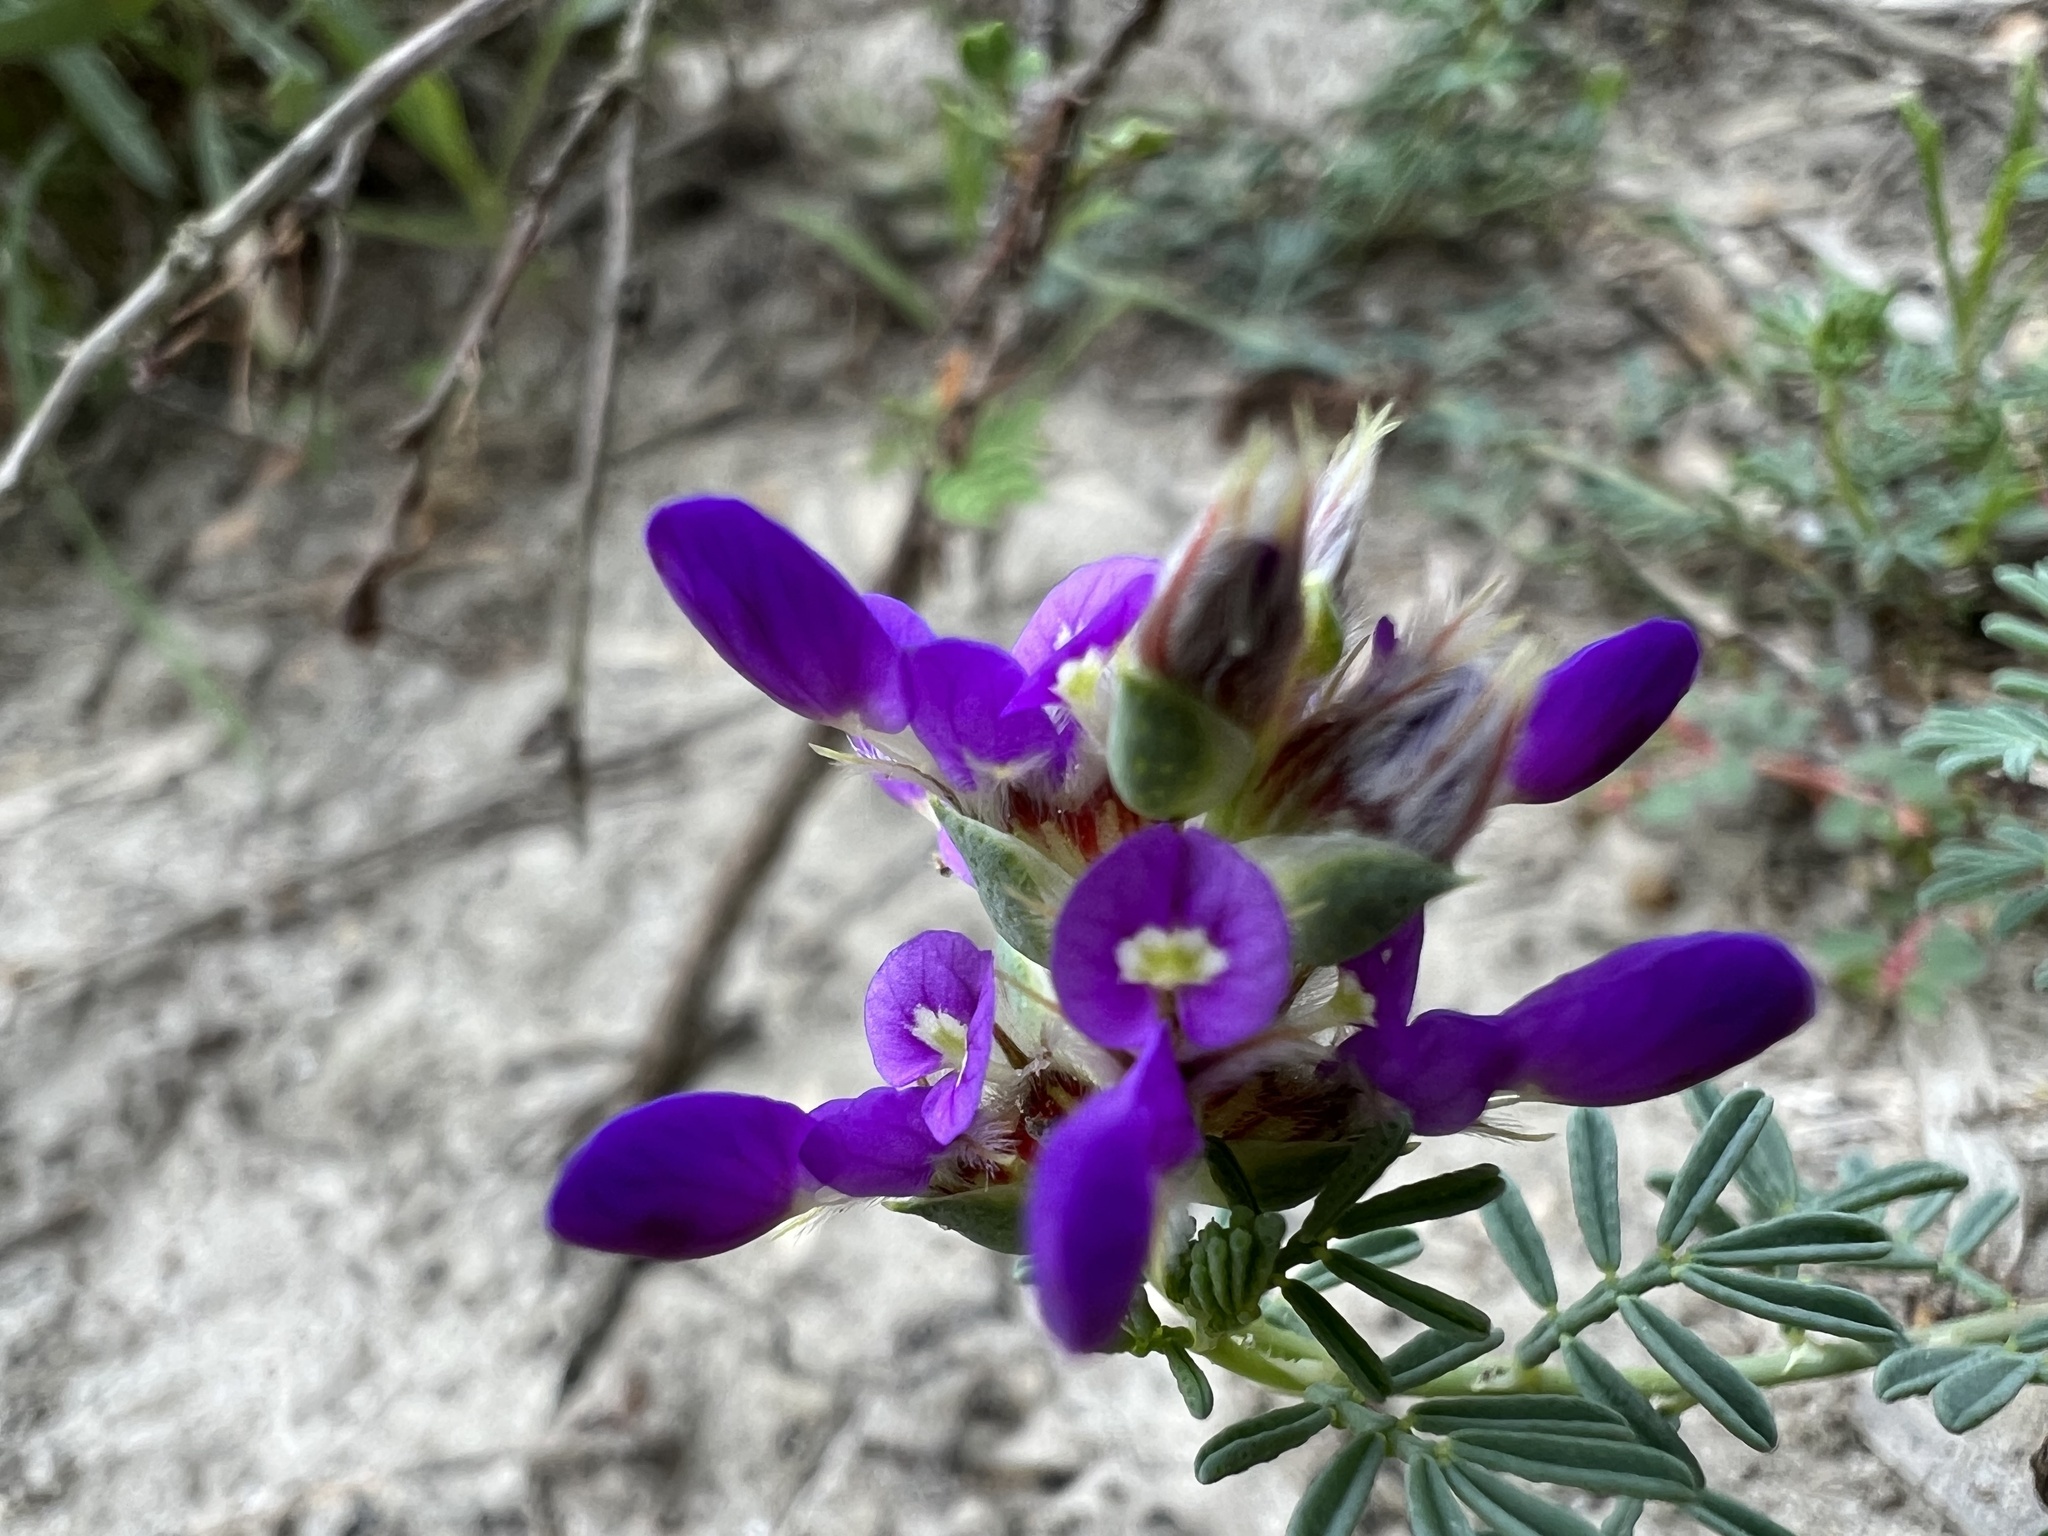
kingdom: Plantae
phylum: Tracheophyta
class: Magnoliopsida
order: Fabales
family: Fabaceae
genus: Dalea
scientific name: Dalea pogonathera
